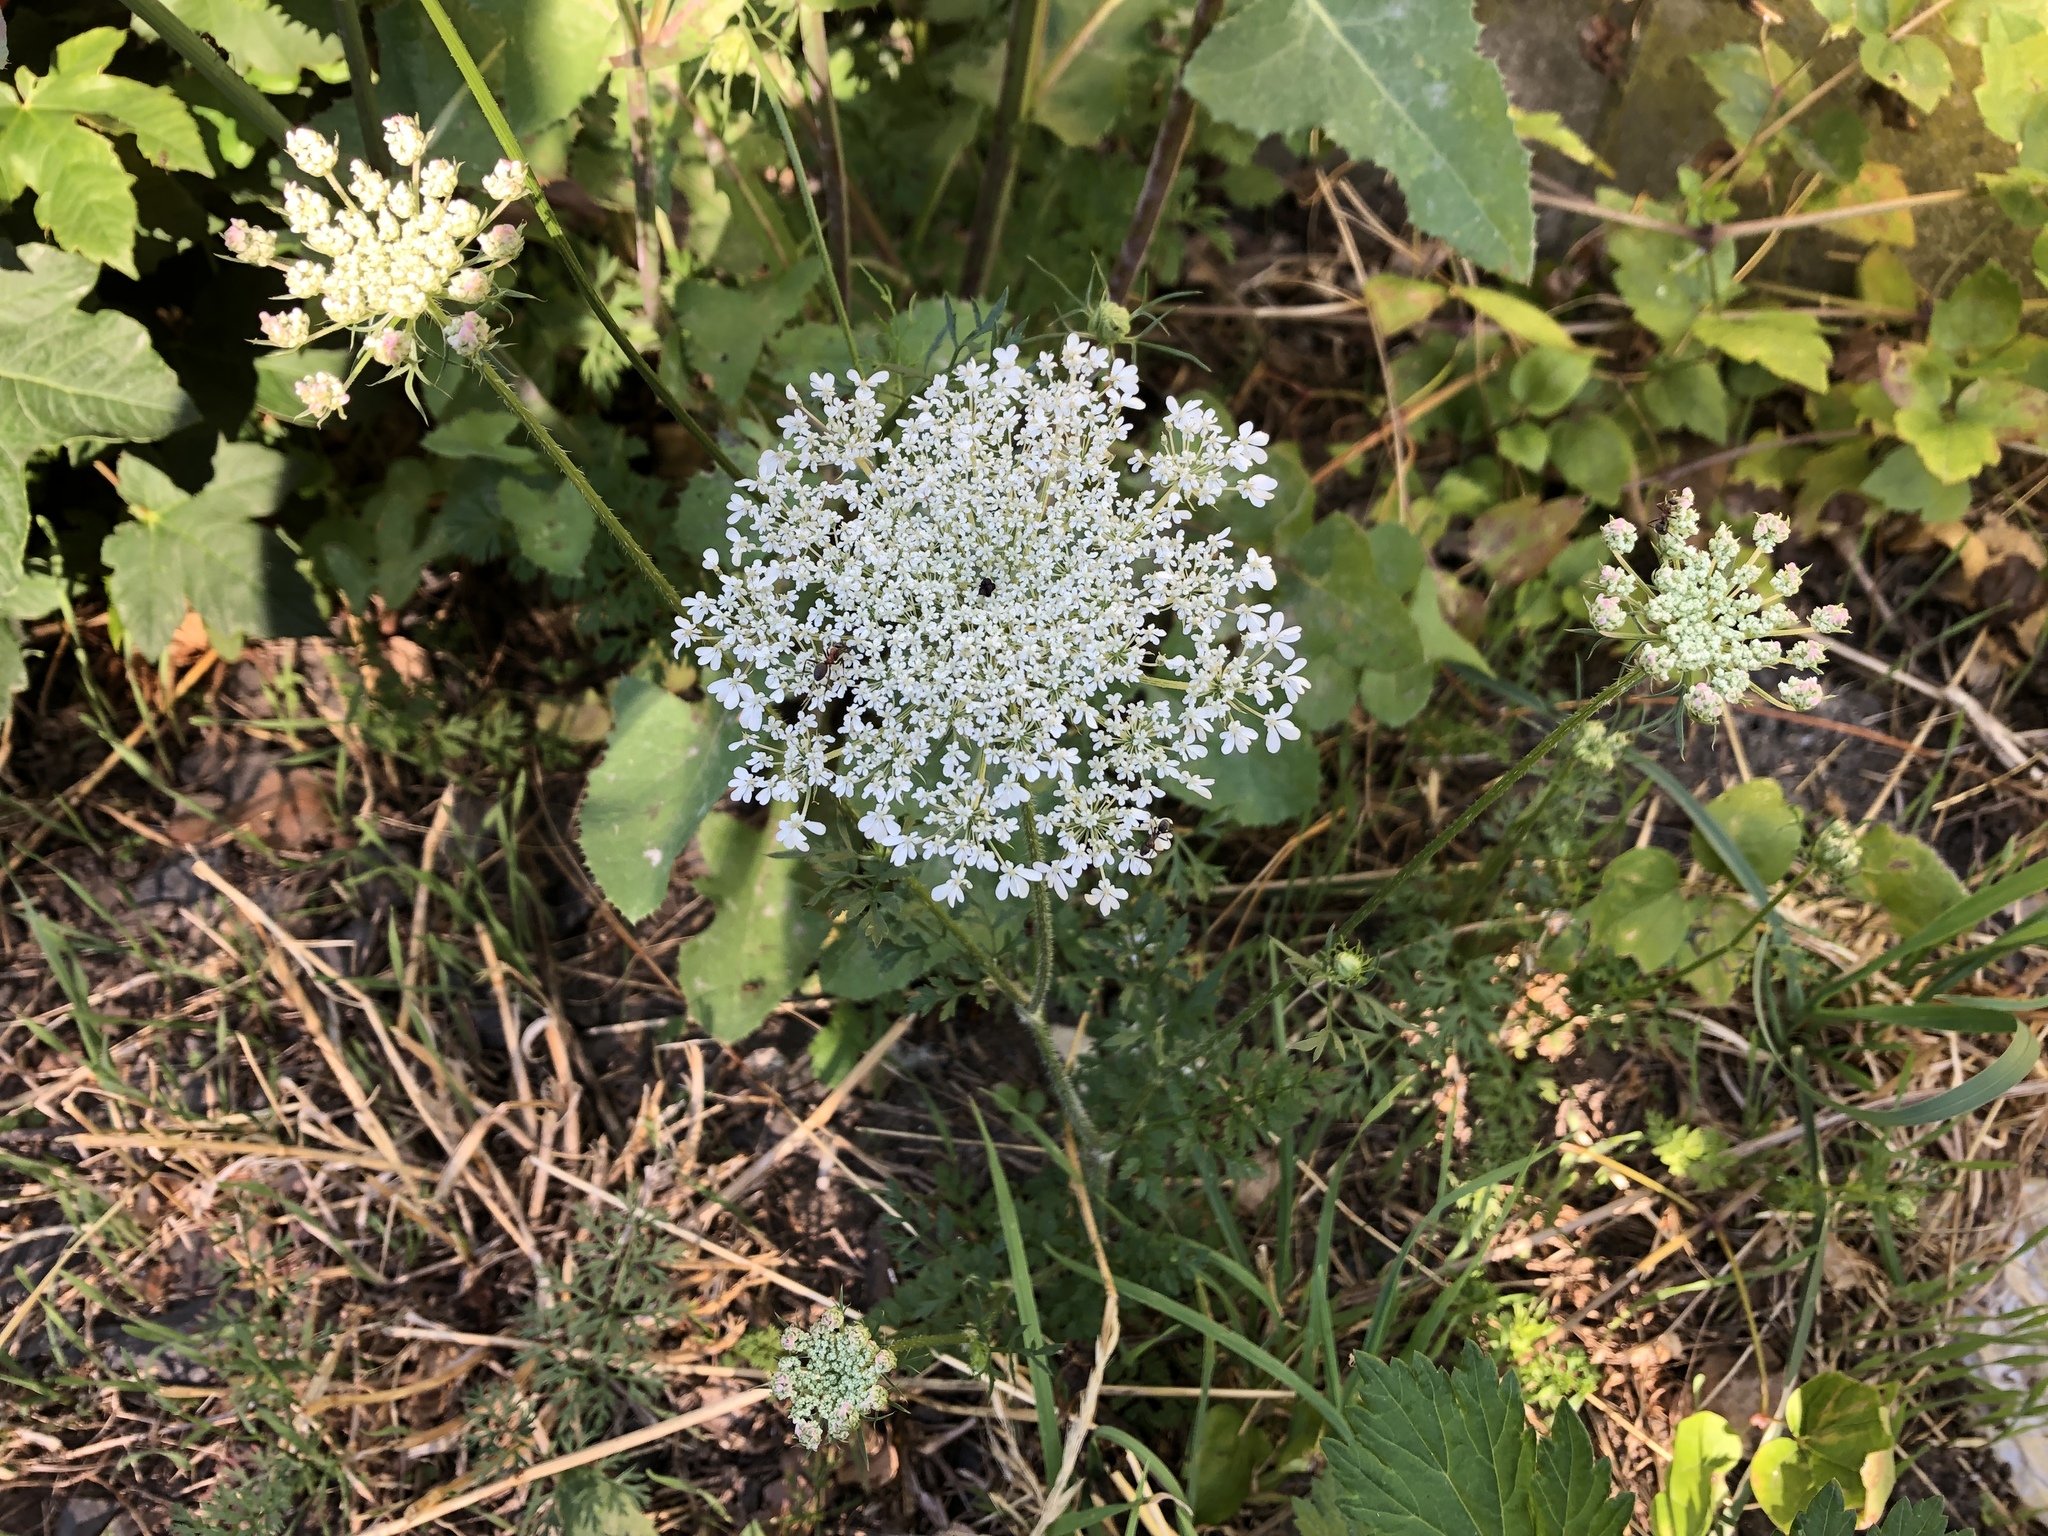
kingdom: Plantae
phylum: Tracheophyta
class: Magnoliopsida
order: Apiales
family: Apiaceae
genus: Daucus
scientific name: Daucus carota
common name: Wild carrot
